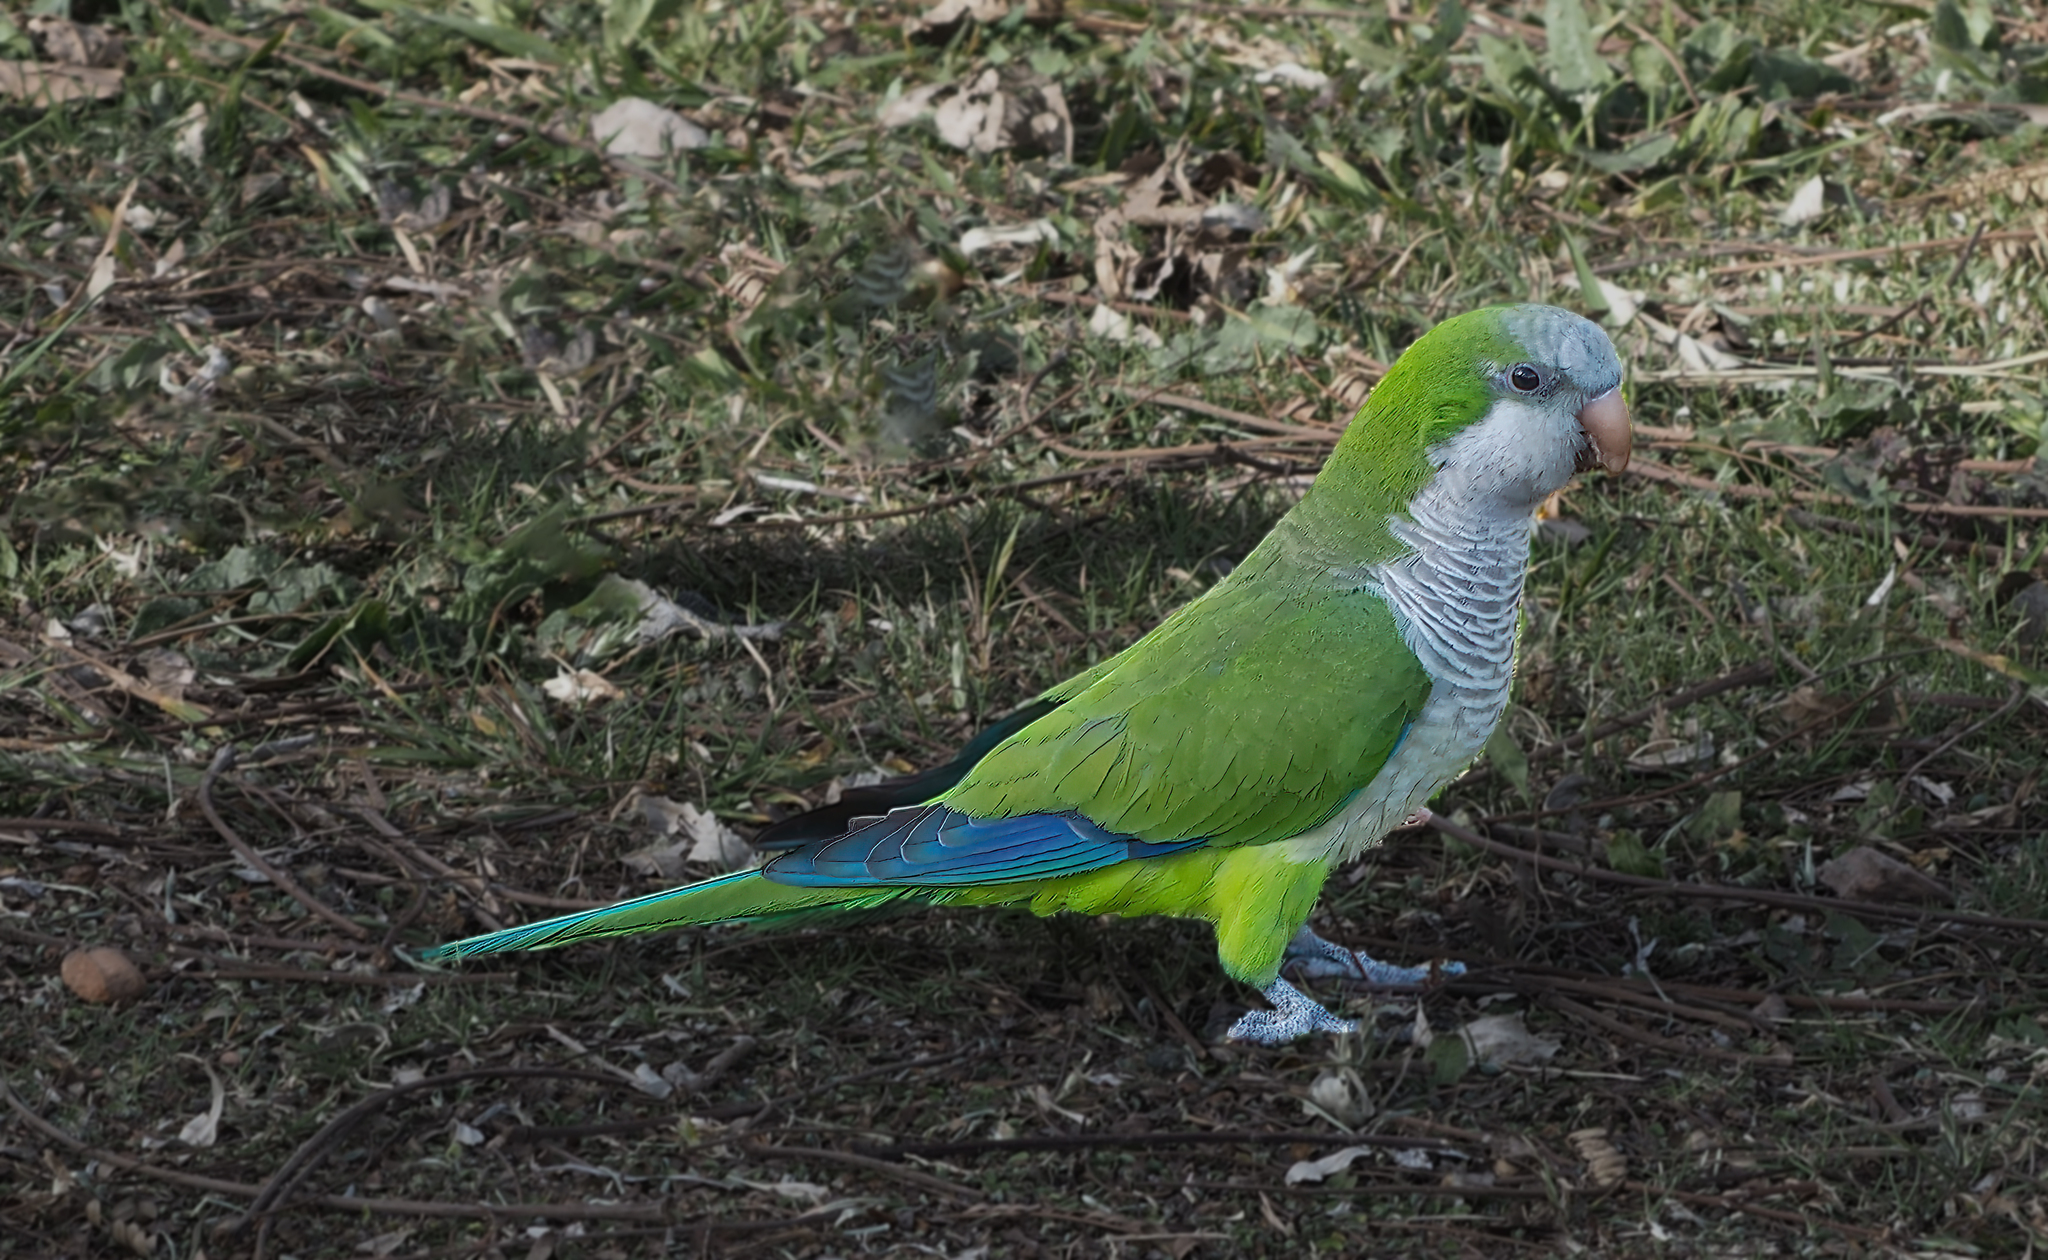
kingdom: Animalia
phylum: Chordata
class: Aves
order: Psittaciformes
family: Psittacidae
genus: Myiopsitta
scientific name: Myiopsitta monachus
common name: Monk parakeet
